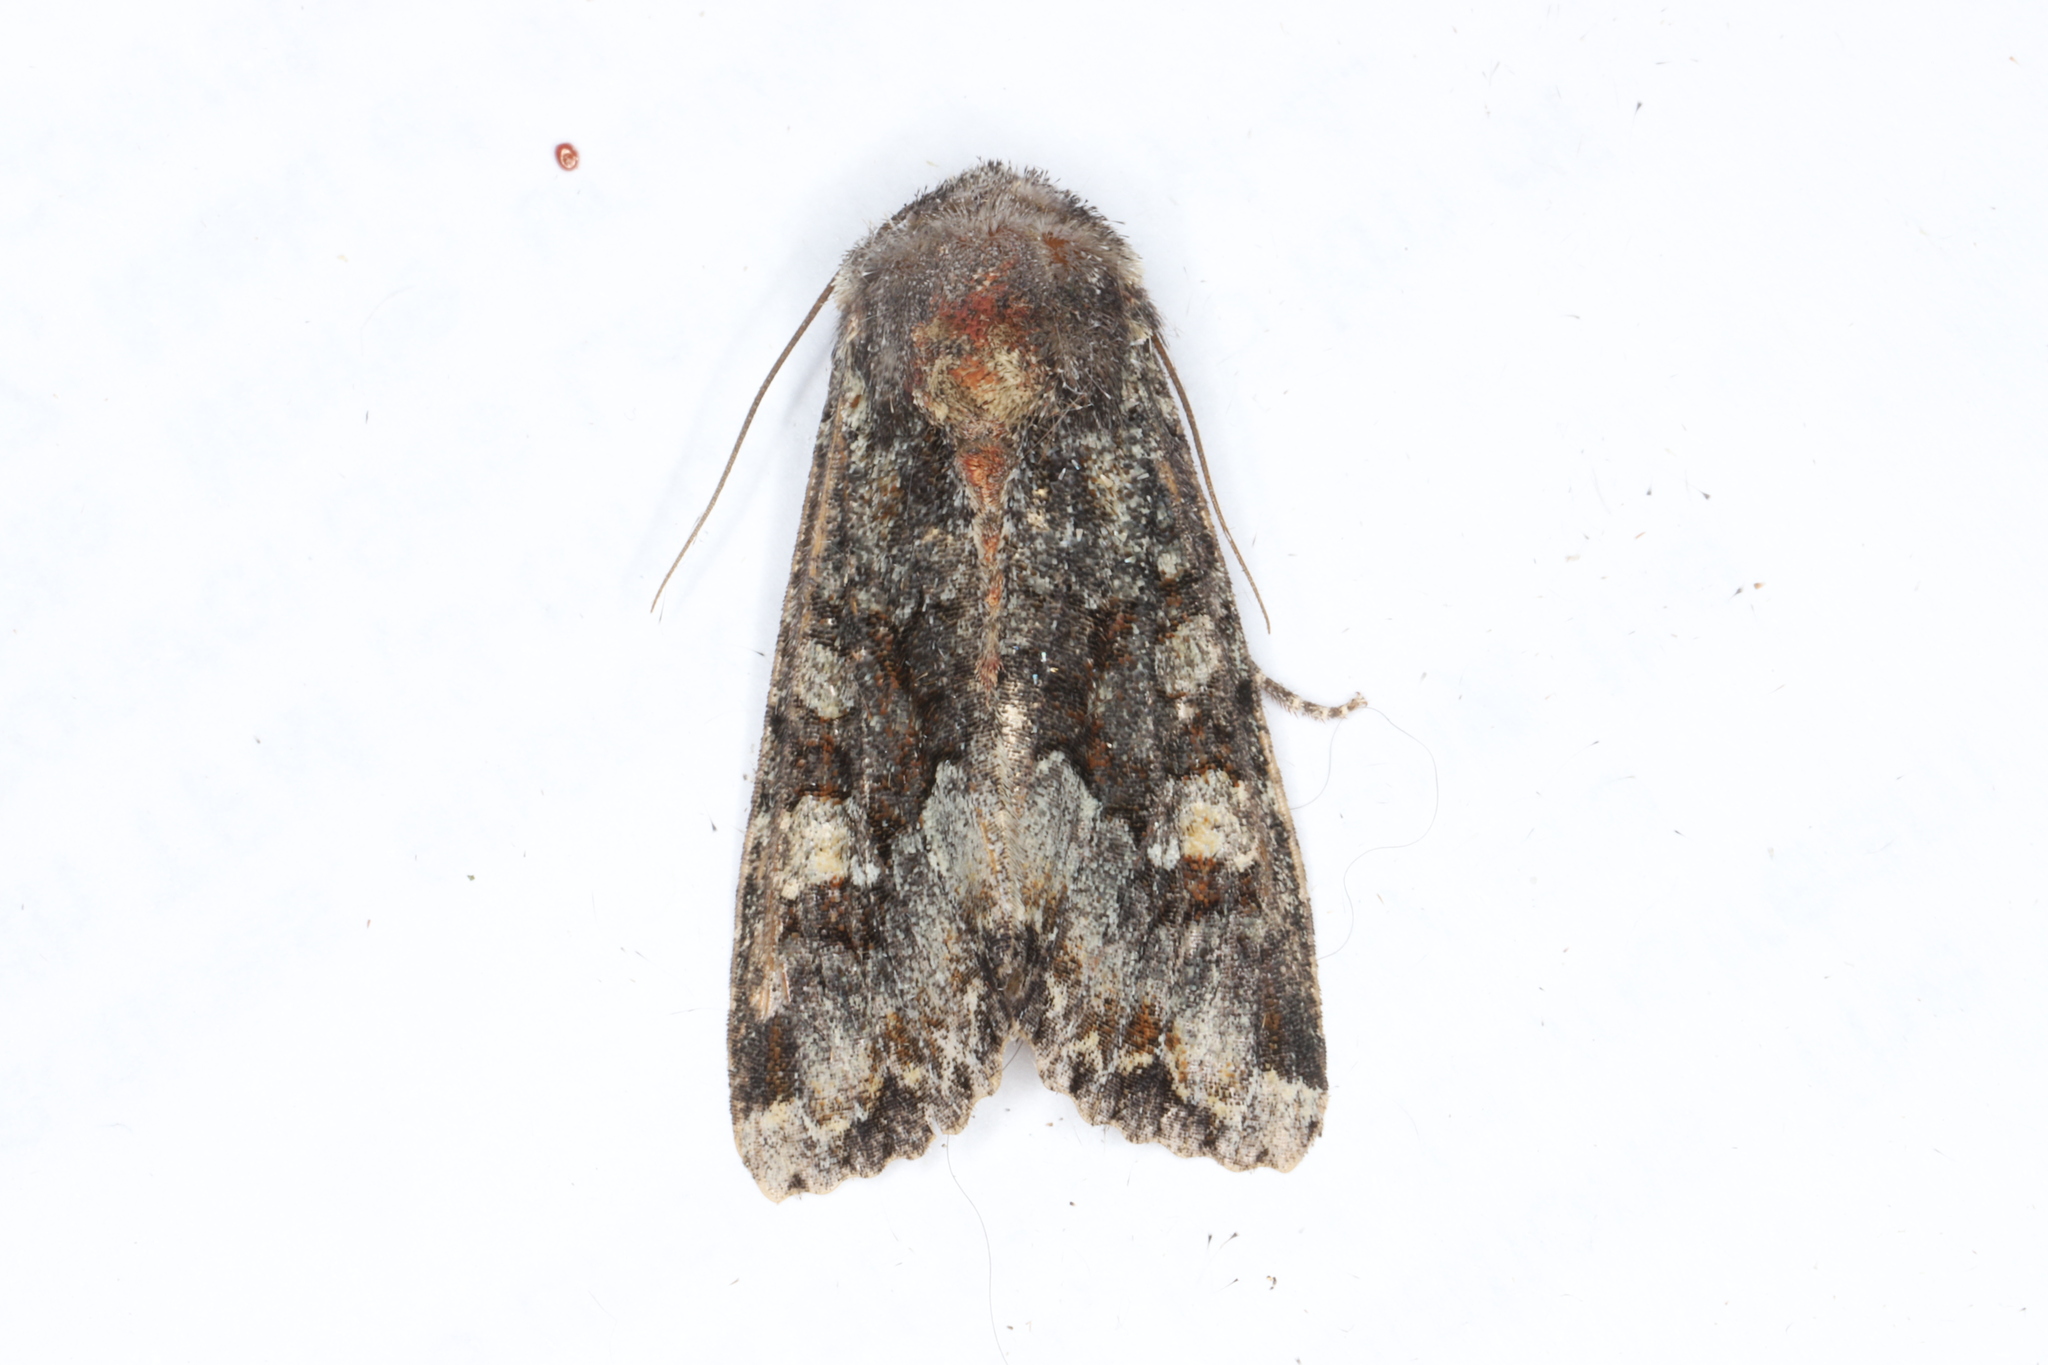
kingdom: Animalia
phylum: Arthropoda
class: Insecta
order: Lepidoptera
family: Noctuidae
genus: Apamea
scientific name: Apamea amputatrix
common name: Yellow-headed cutworm moth
